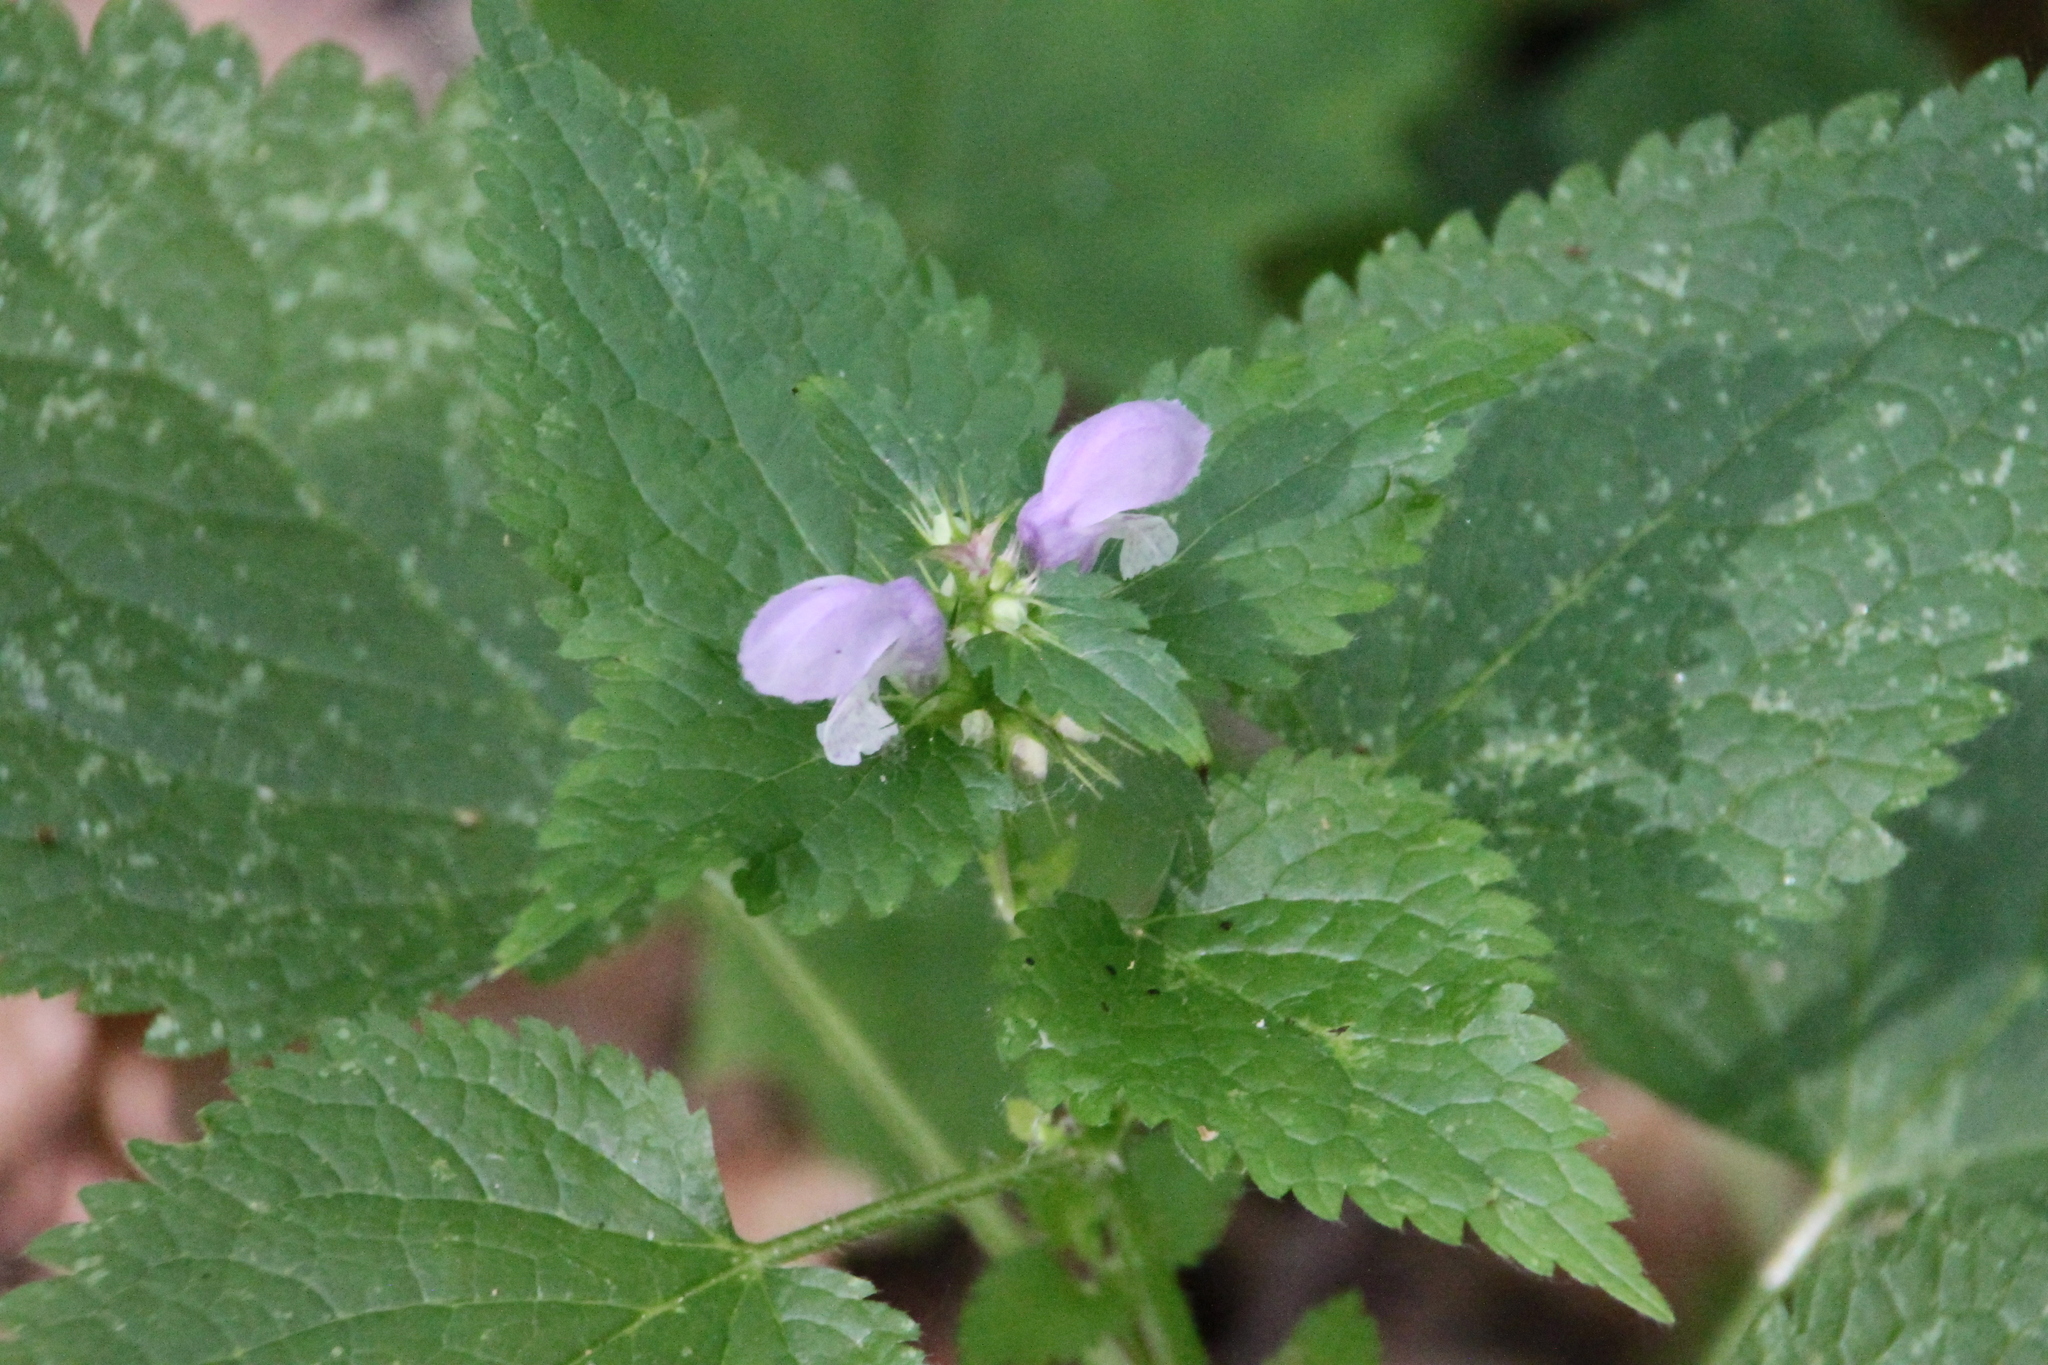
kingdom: Plantae
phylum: Tracheophyta
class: Magnoliopsida
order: Lamiales
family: Lamiaceae
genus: Lamium
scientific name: Lamium maculatum
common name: Spotted dead-nettle
